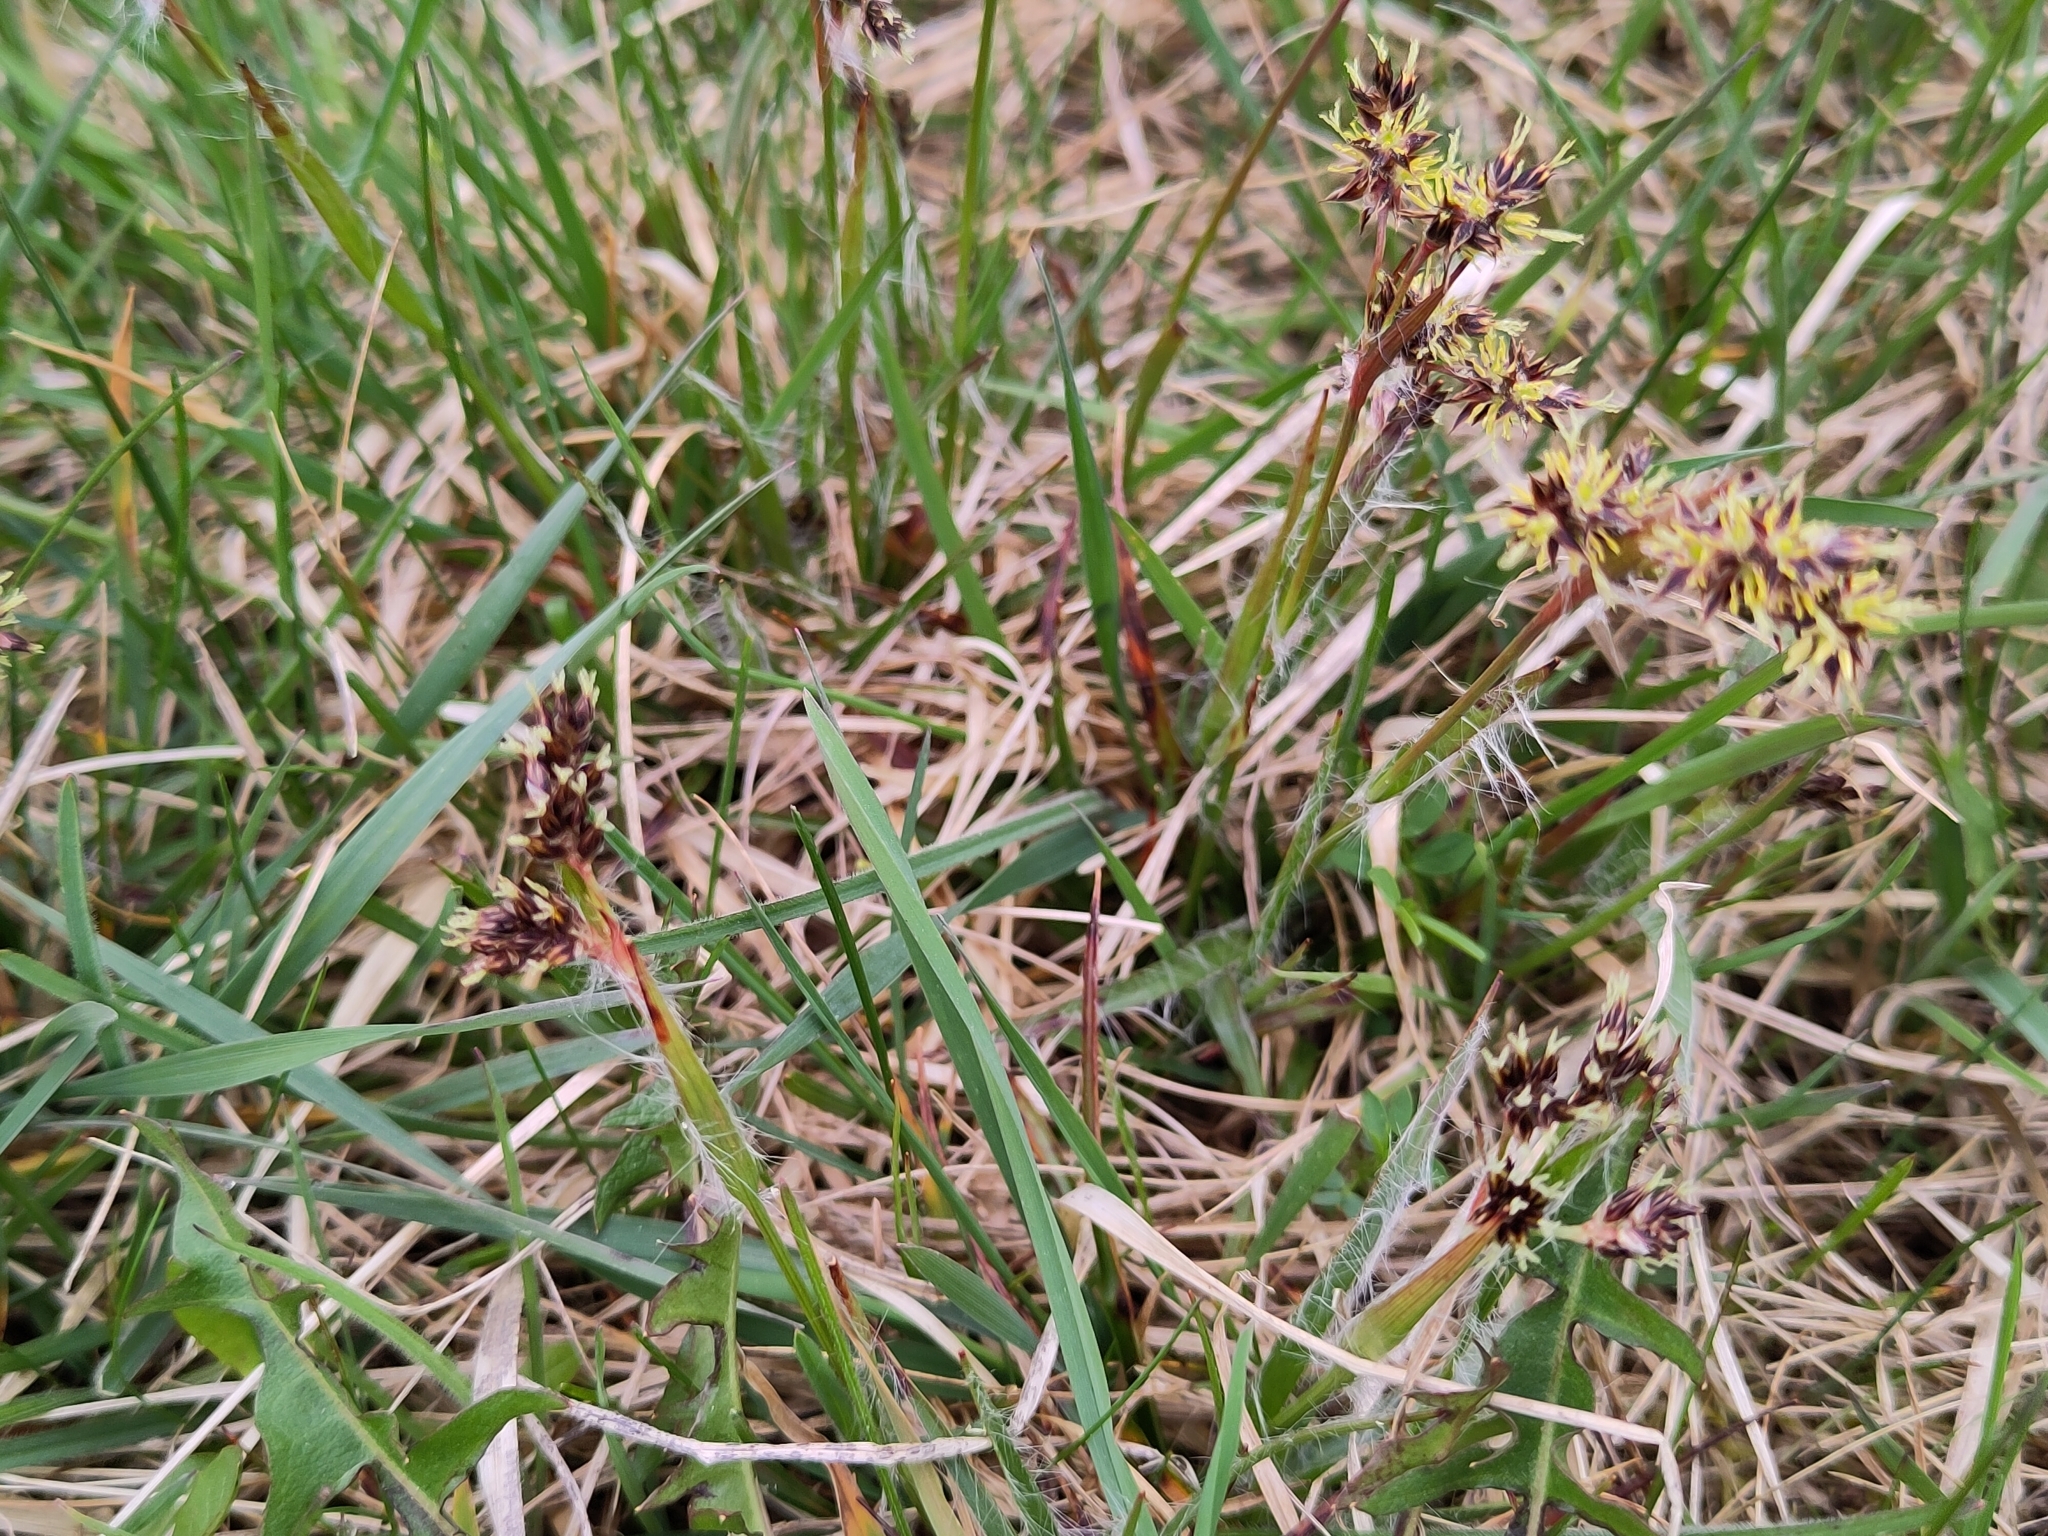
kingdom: Plantae
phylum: Tracheophyta
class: Liliopsida
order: Poales
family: Juncaceae
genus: Luzula
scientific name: Luzula campestris
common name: Field wood-rush
